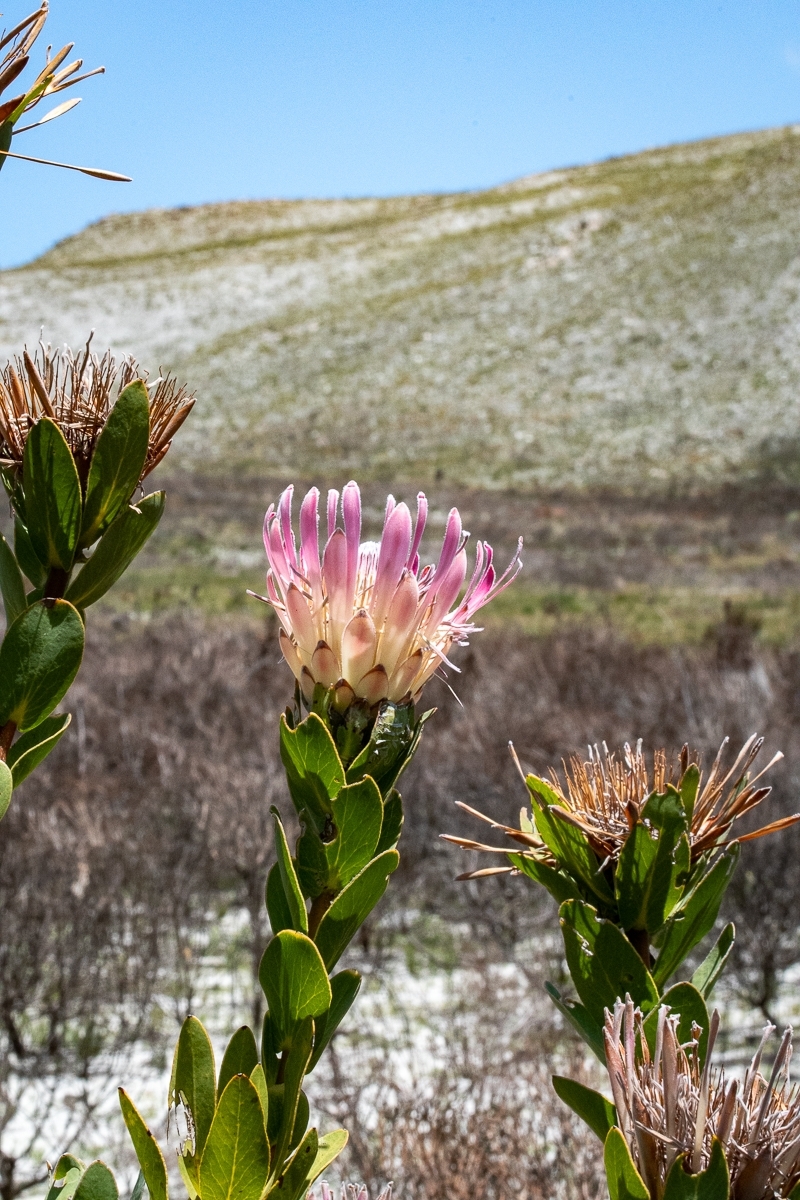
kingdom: Plantae
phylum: Tracheophyta
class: Magnoliopsida
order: Proteales
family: Proteaceae
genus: Protea
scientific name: Protea compacta
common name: Bot river protea
